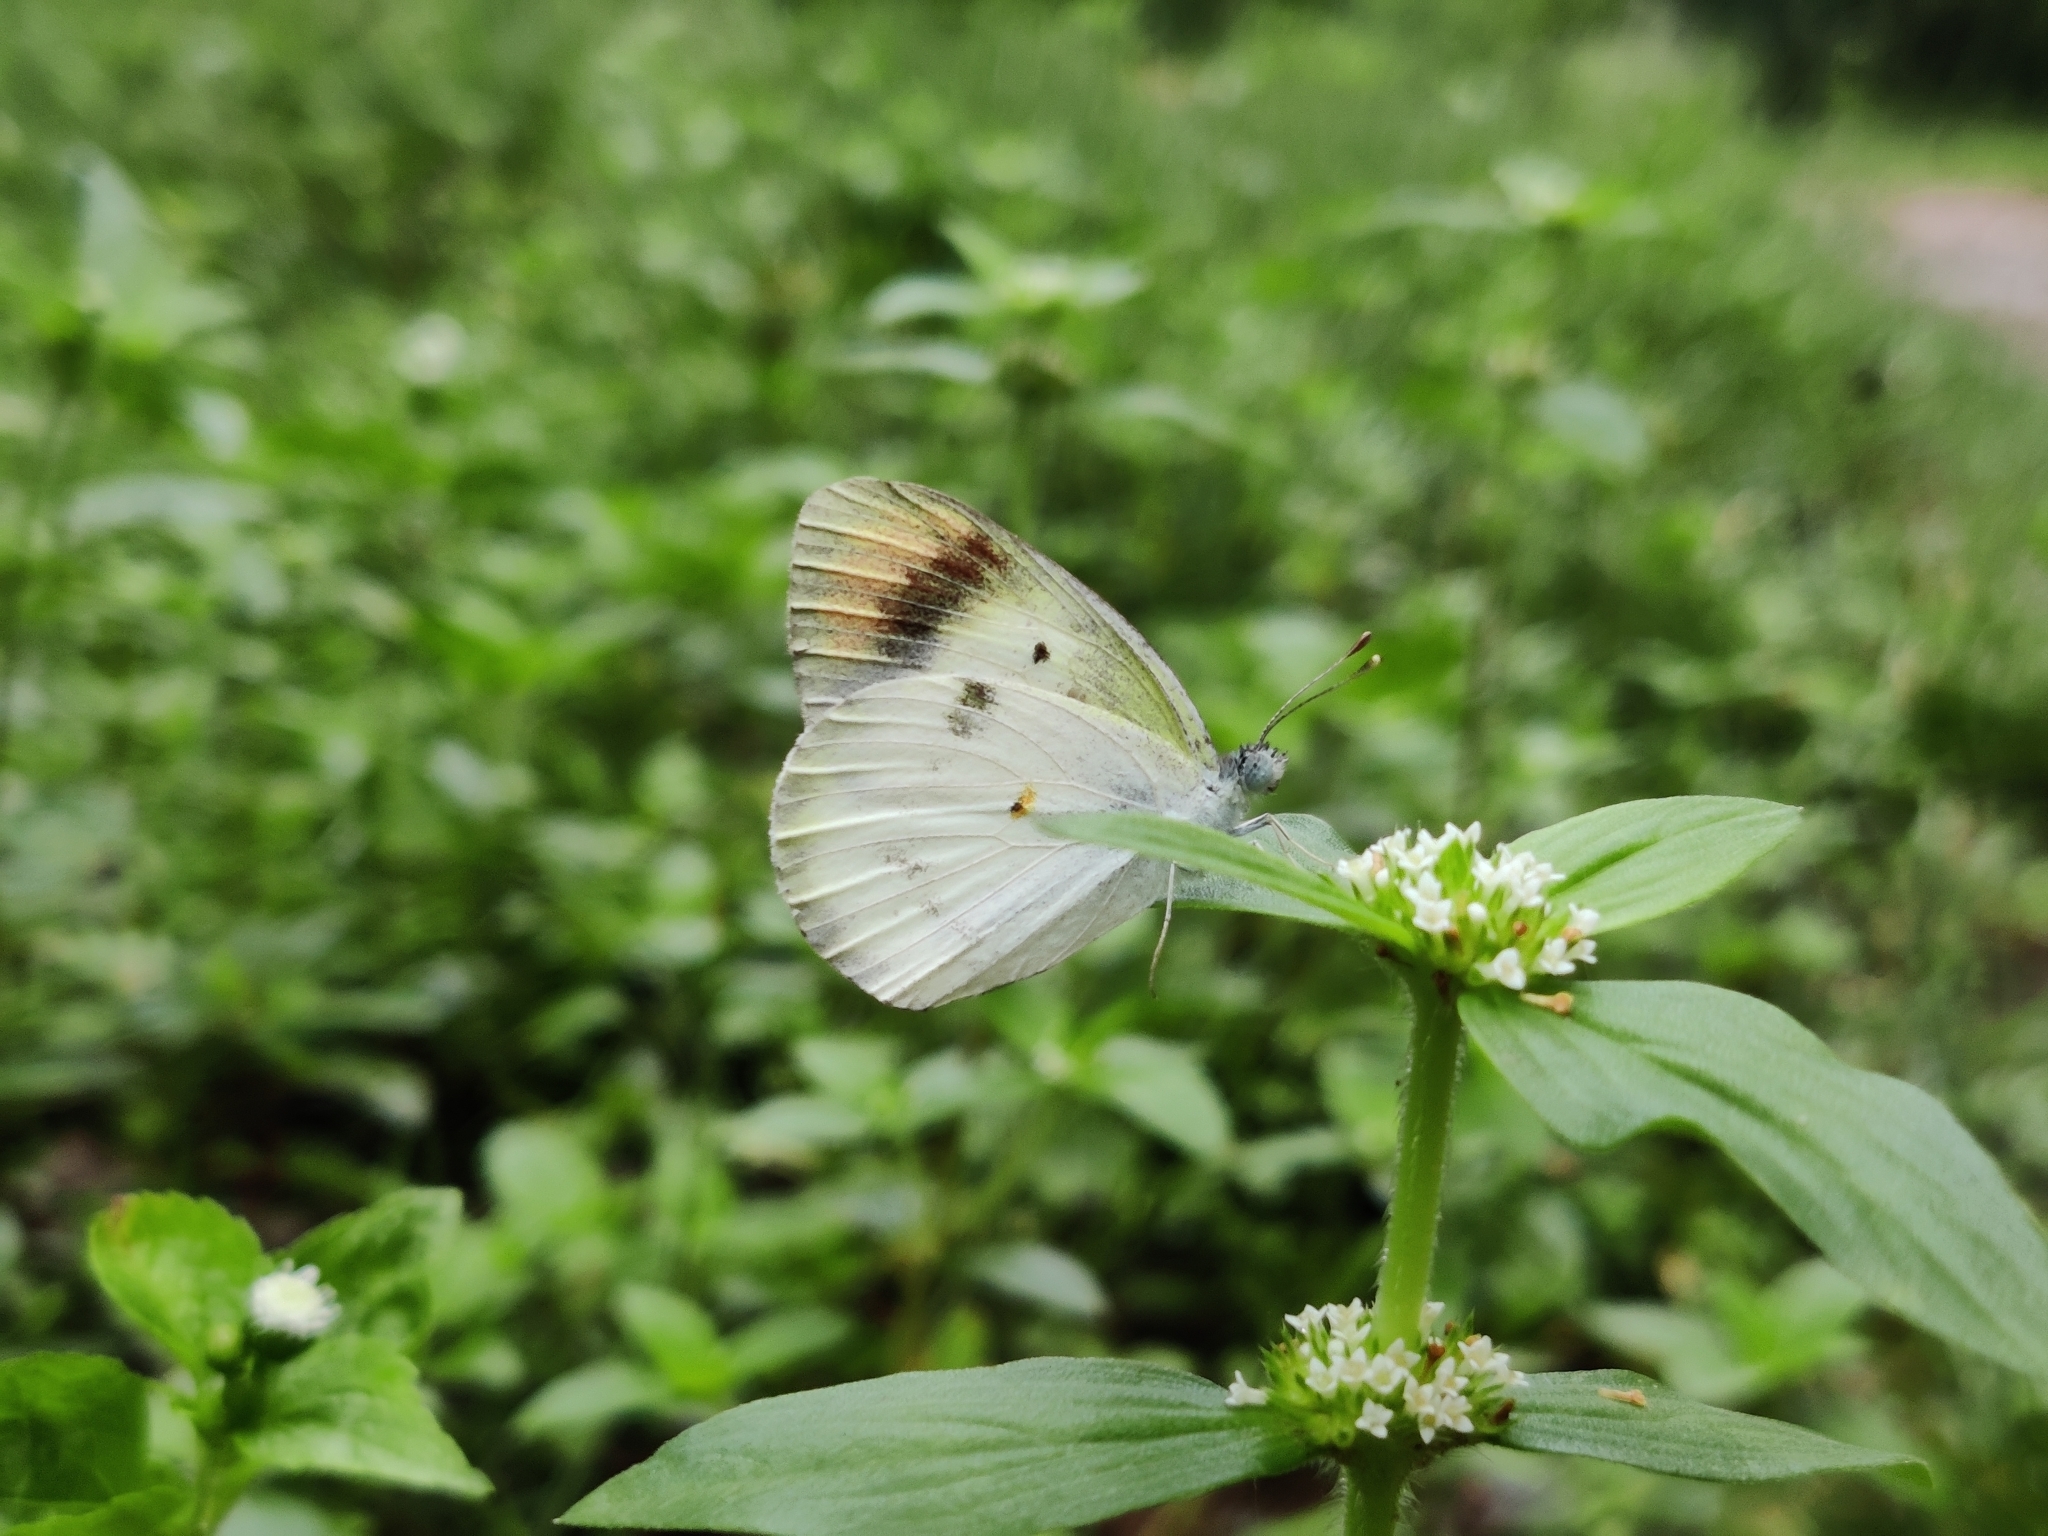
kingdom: Animalia
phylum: Arthropoda
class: Insecta
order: Lepidoptera
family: Pieridae
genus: Colotis
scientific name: Colotis aurora
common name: Plain orange-tip
